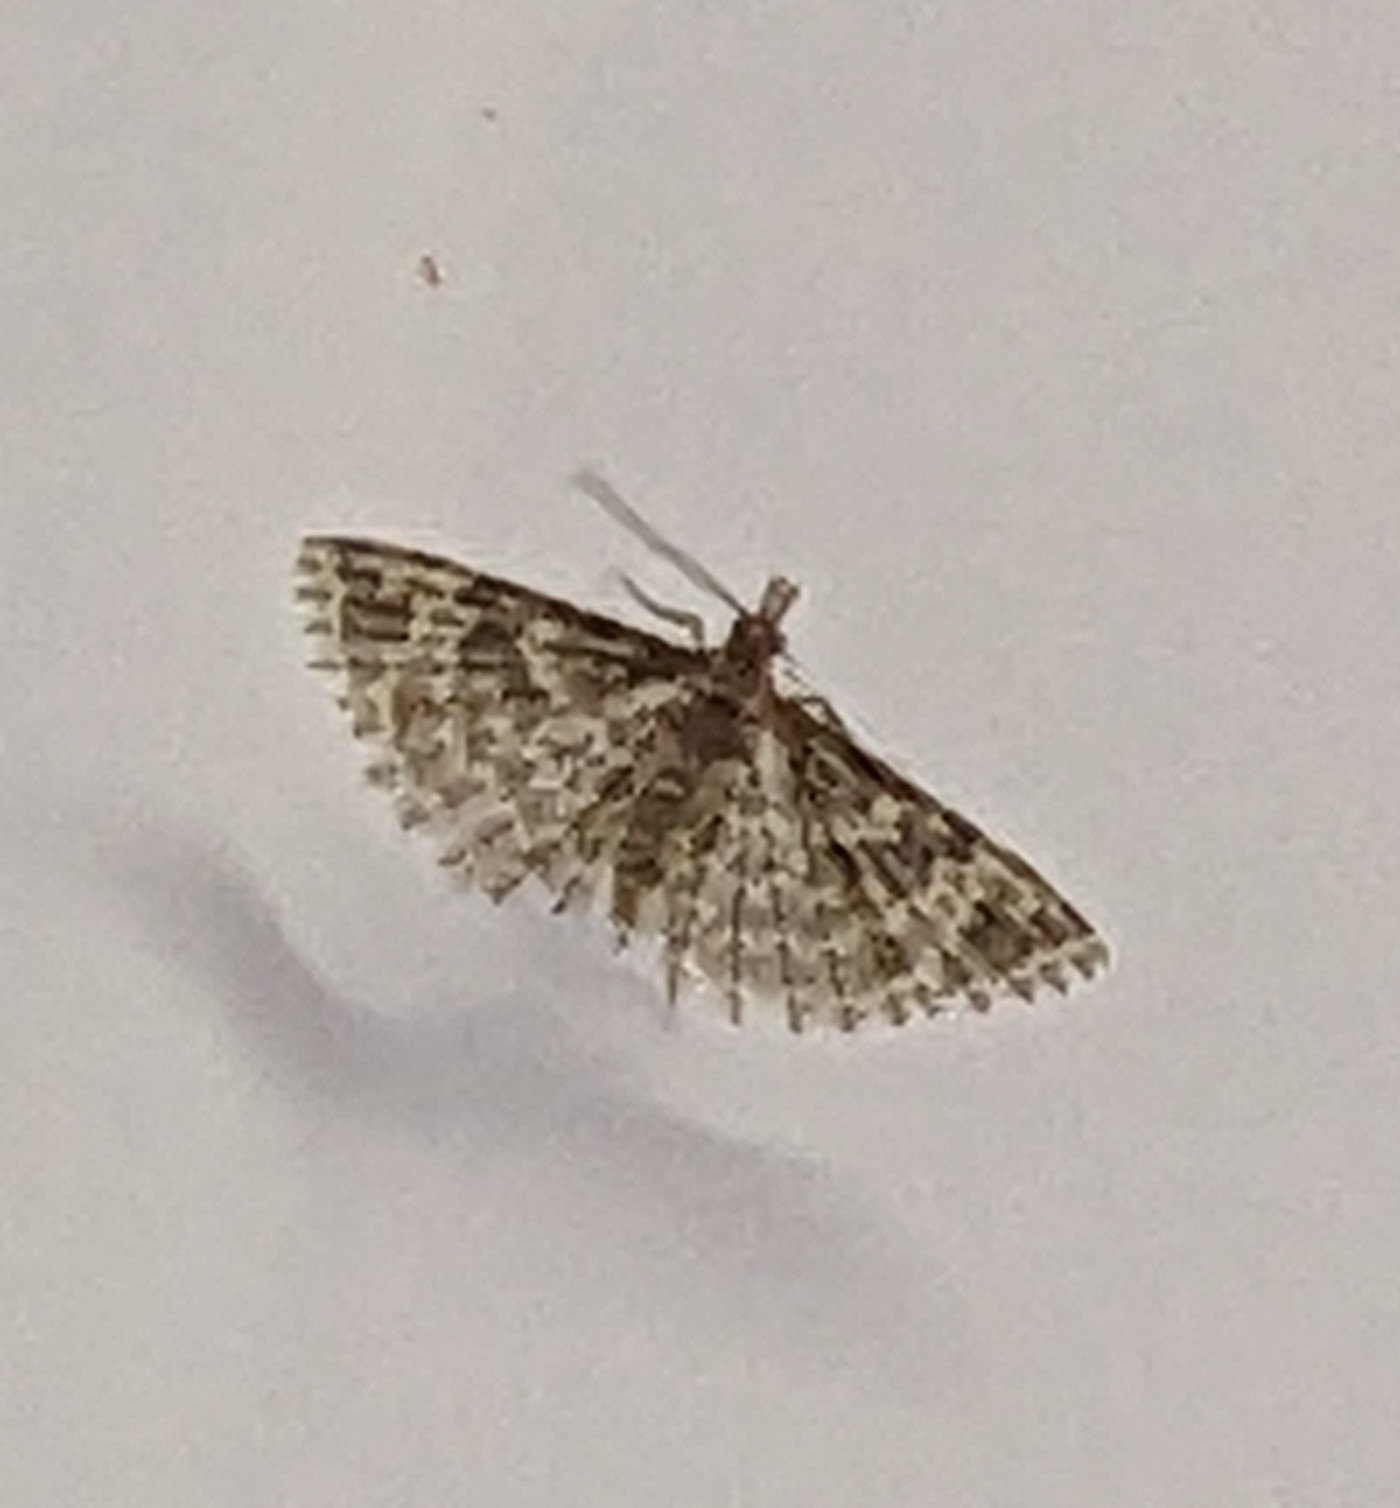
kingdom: Animalia
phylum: Arthropoda
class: Insecta
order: Lepidoptera
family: Alucitidae
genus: Alucita
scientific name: Alucita hexadactyla
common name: Twenty-plume moth
